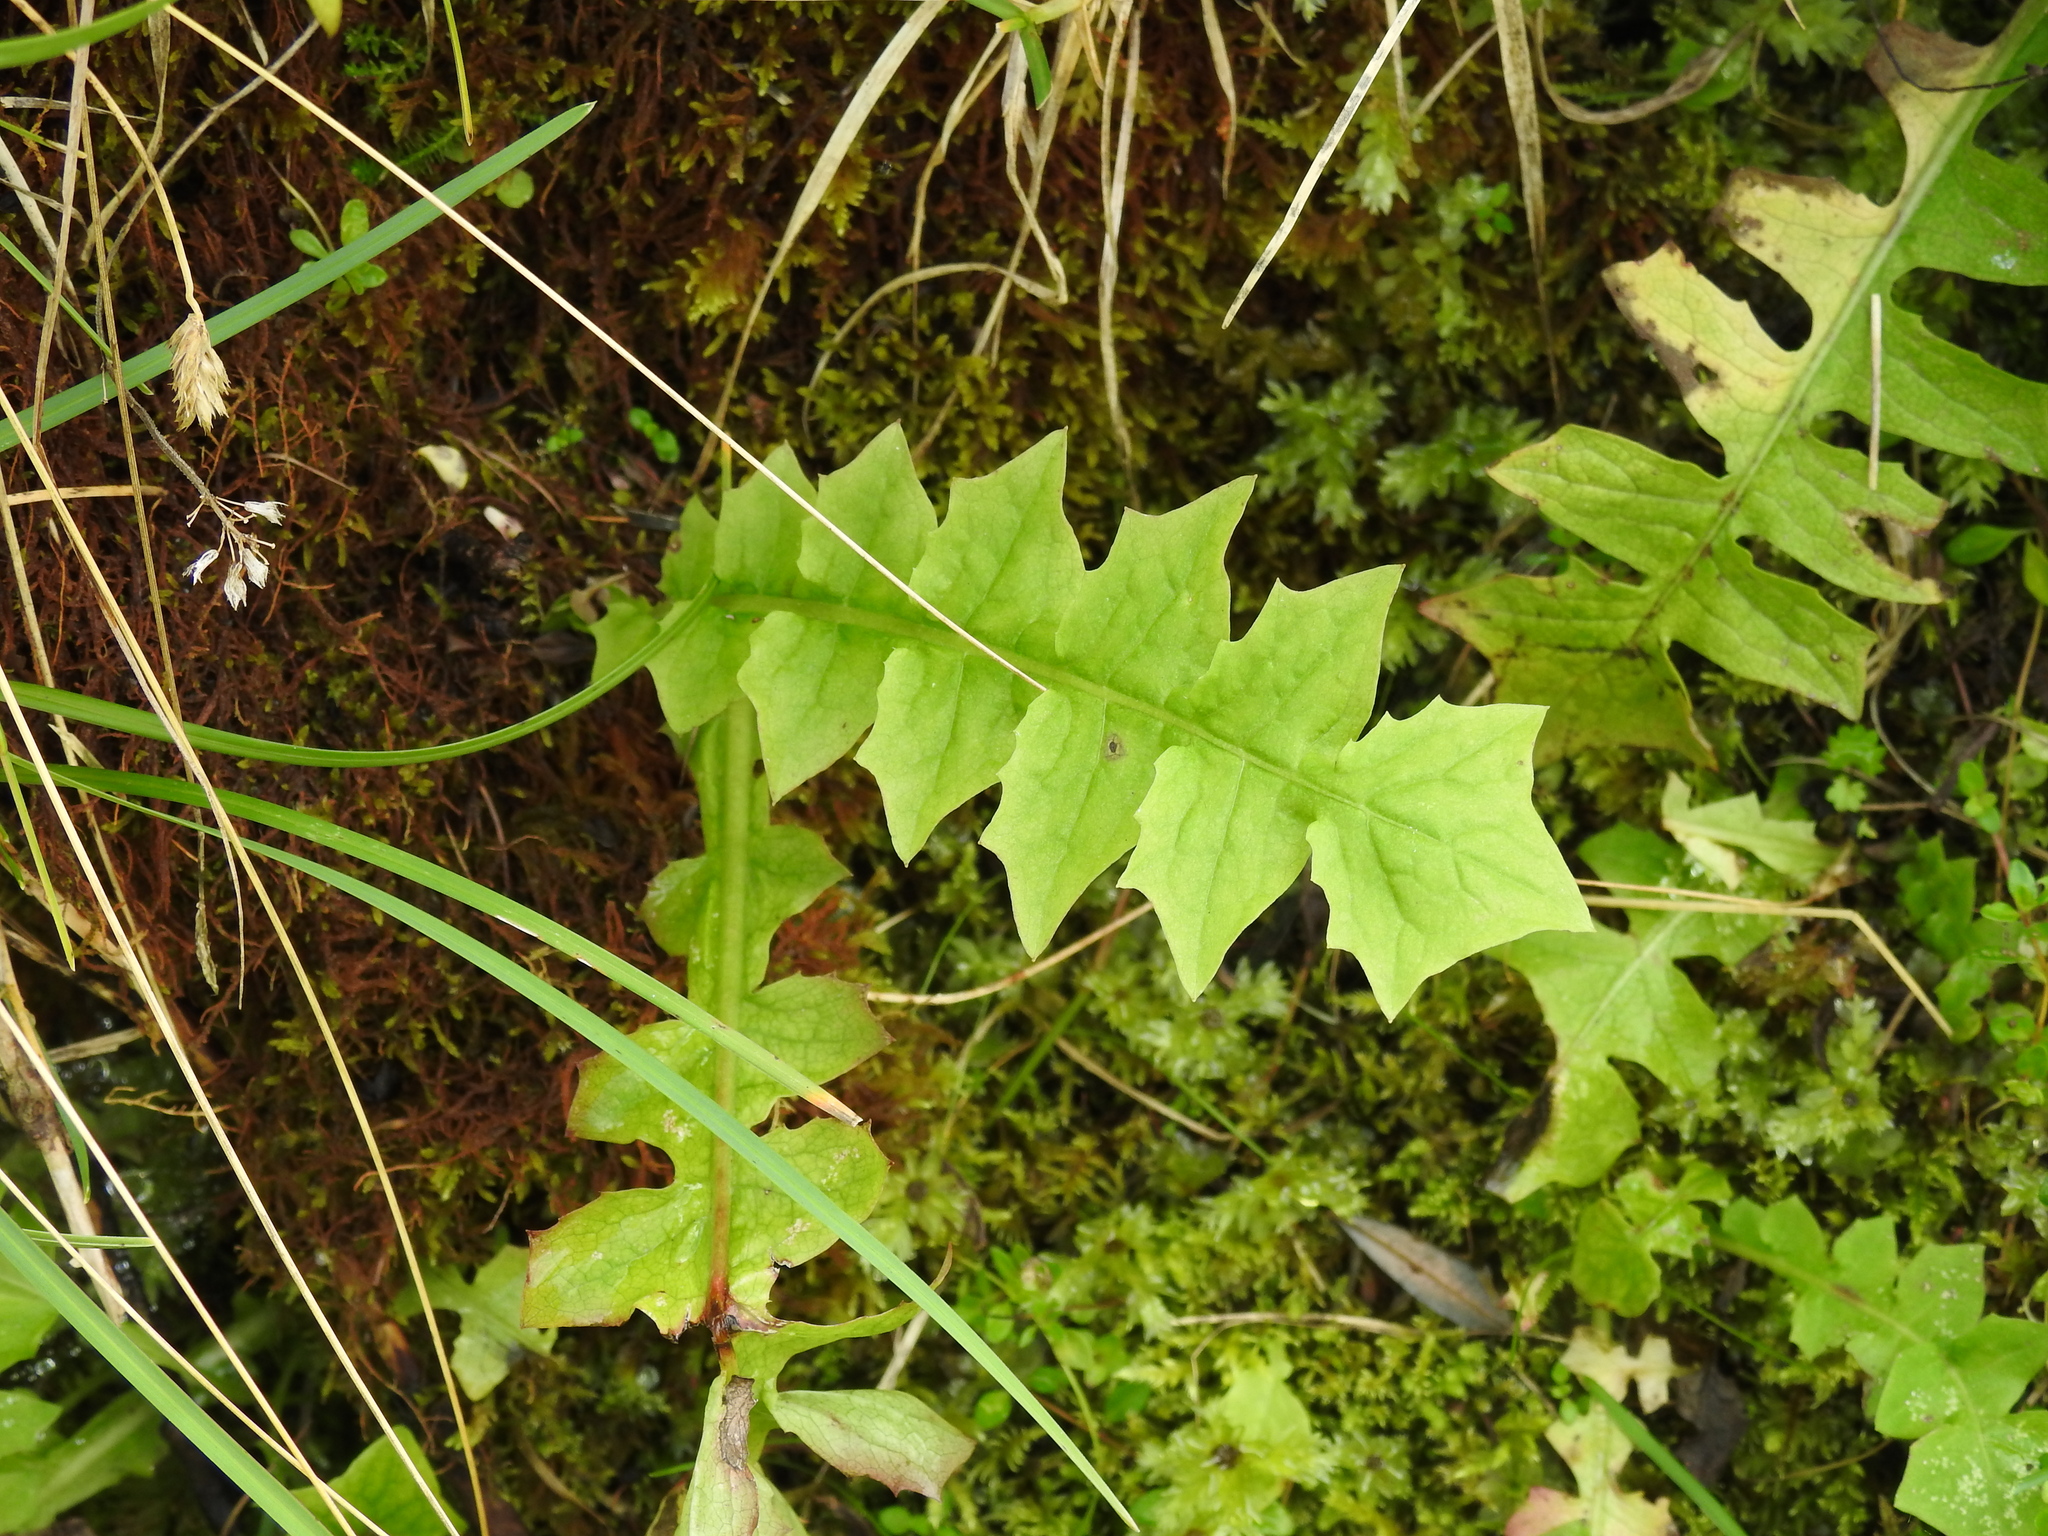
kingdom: Plantae
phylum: Tracheophyta
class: Magnoliopsida
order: Asterales
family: Asteraceae
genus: Aposeris
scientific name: Aposeris foetida
